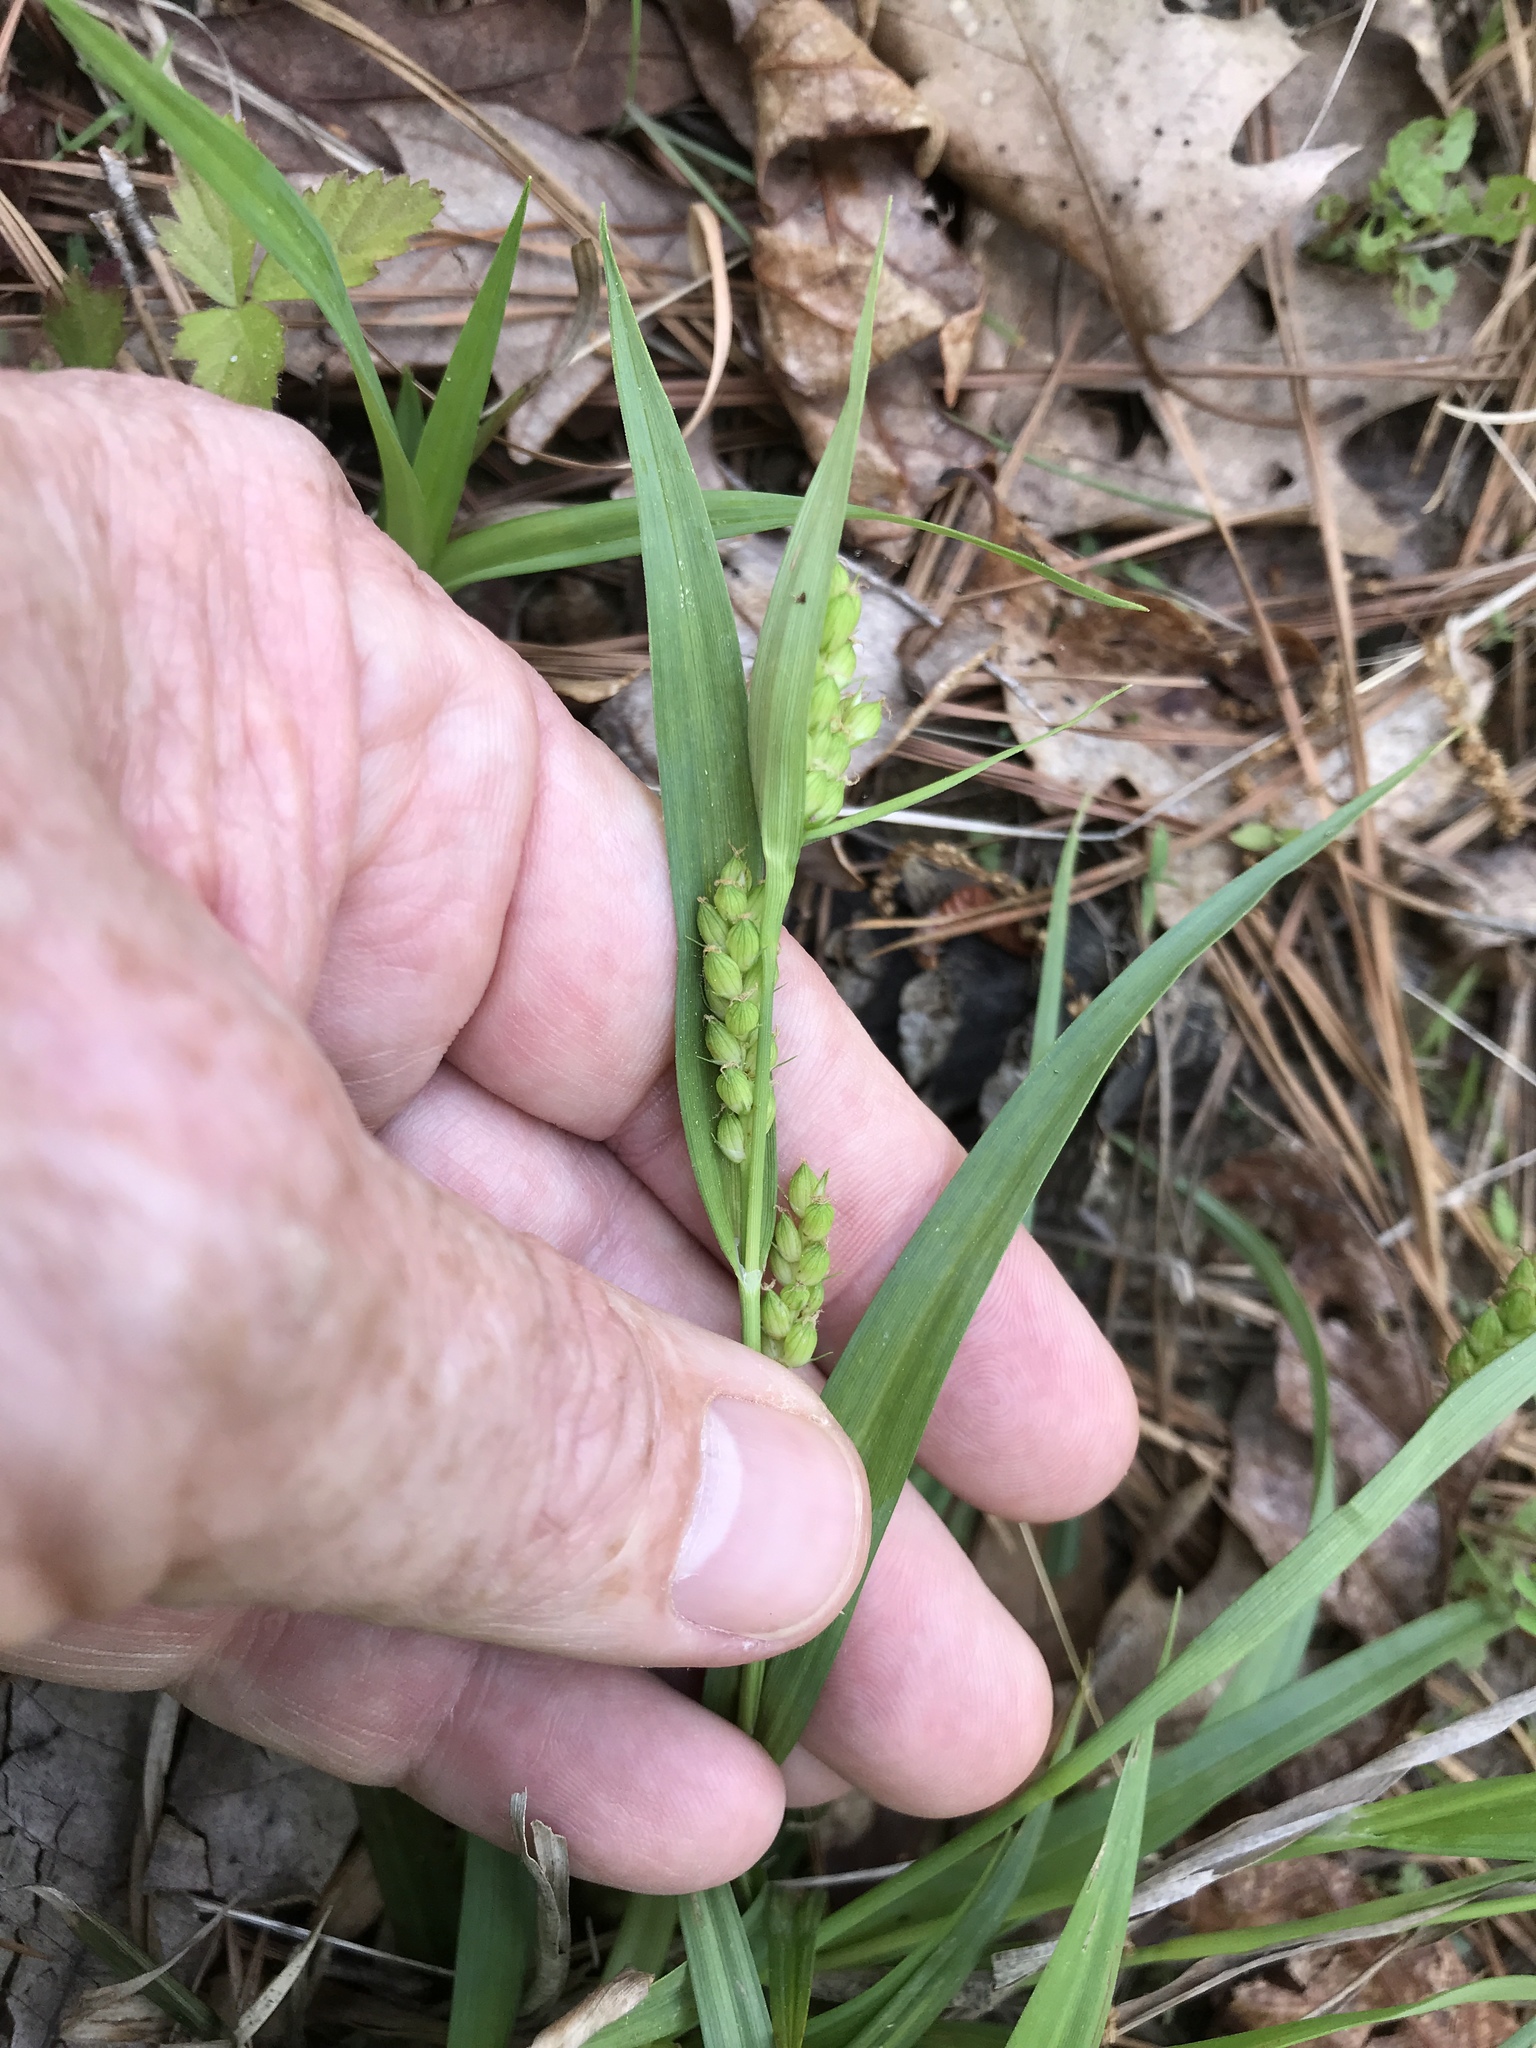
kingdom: Plantae
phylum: Tracheophyta
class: Liliopsida
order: Poales
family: Cyperaceae
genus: Carex
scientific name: Carex glaucodea
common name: Blue sedge
